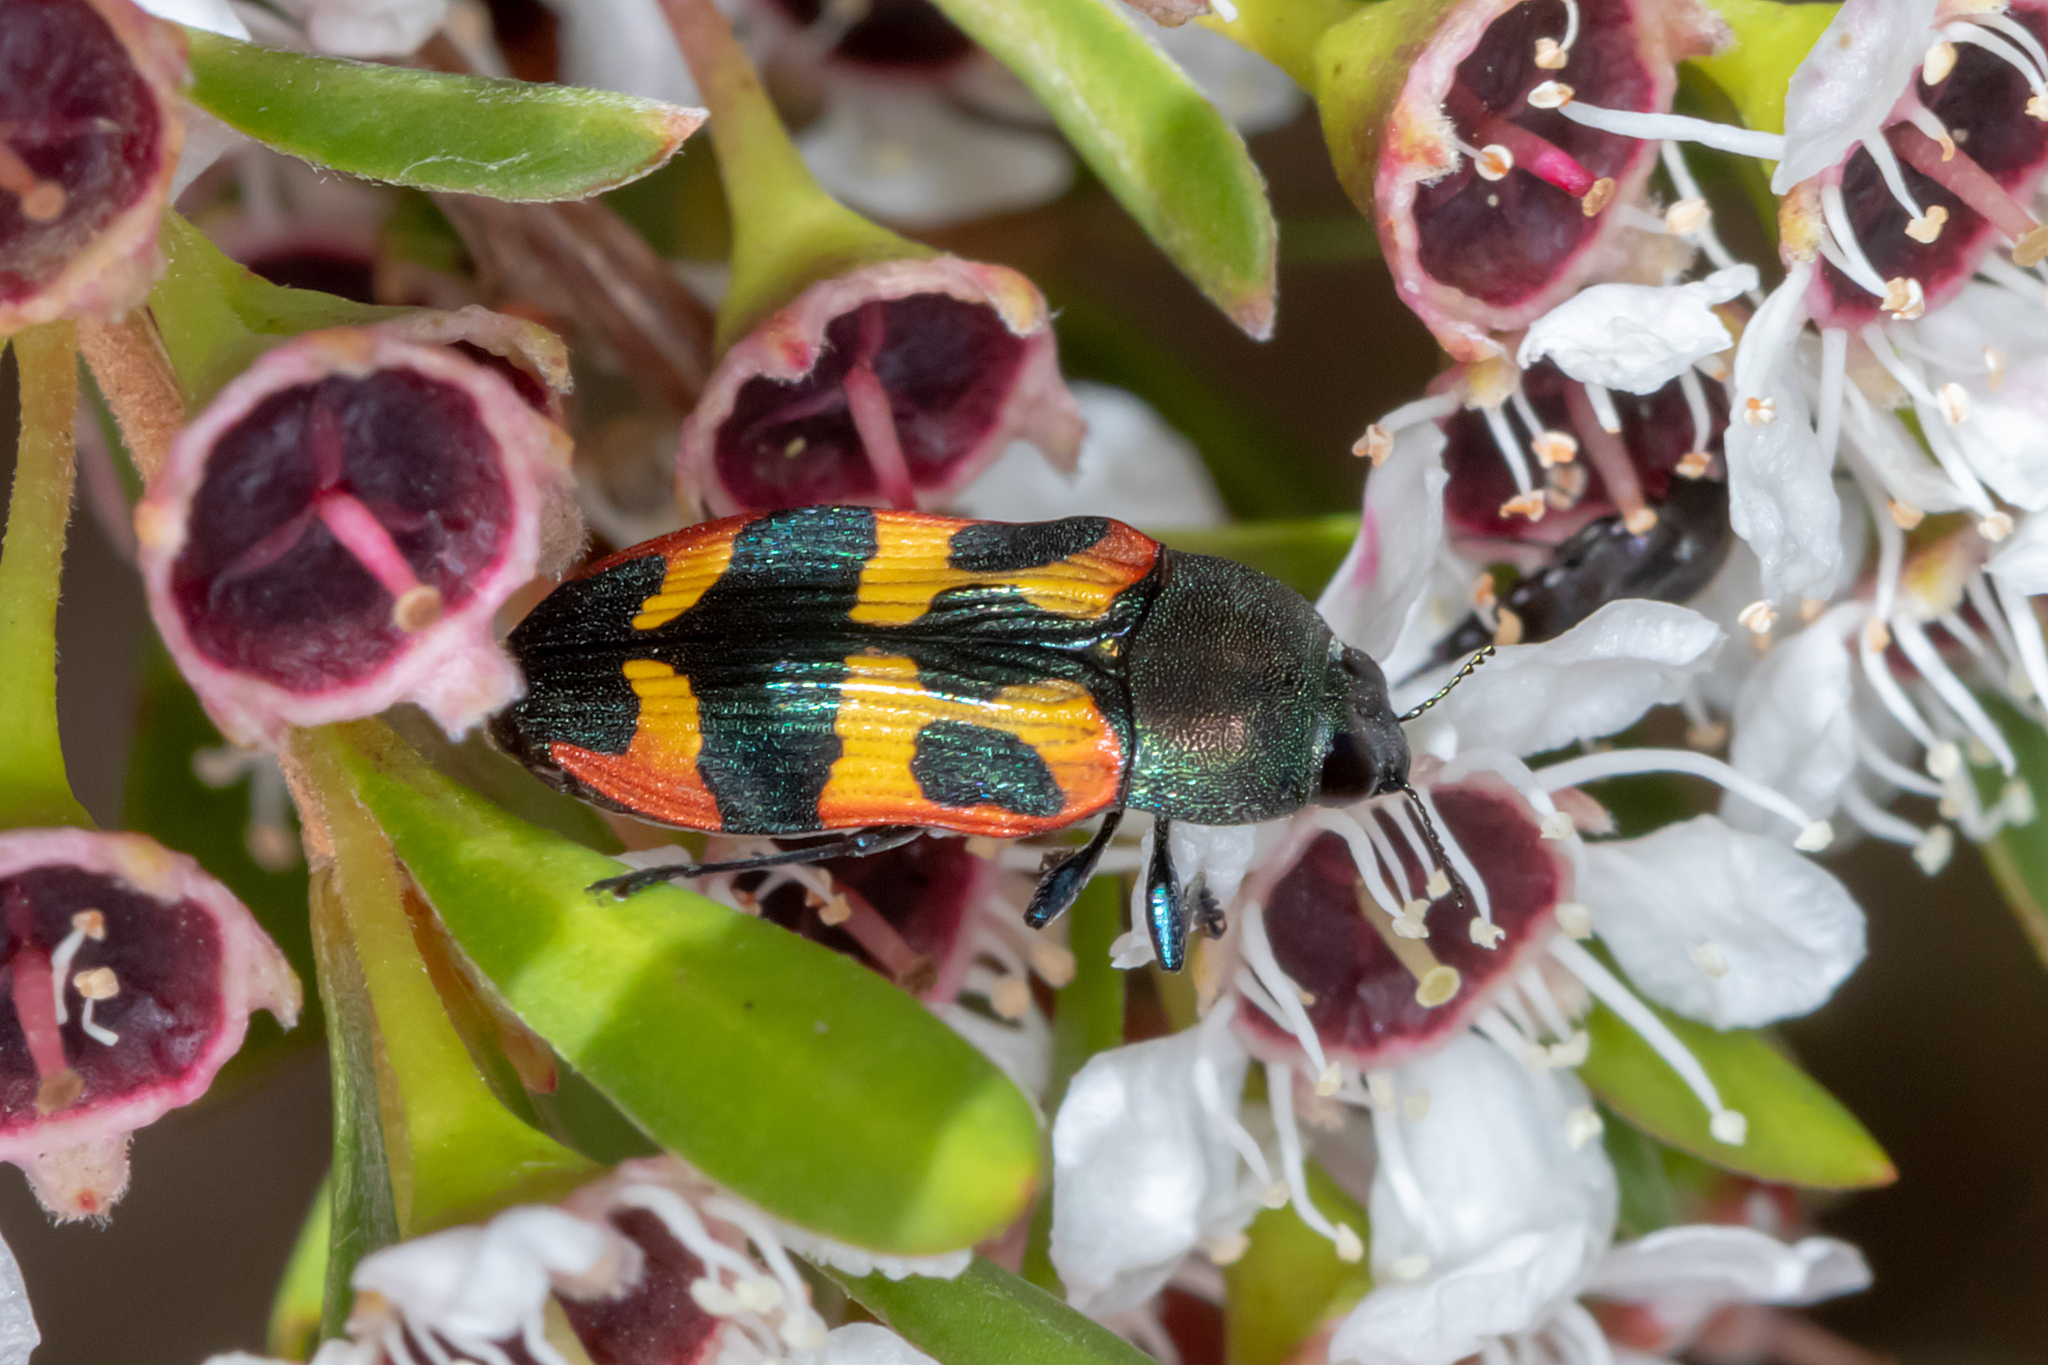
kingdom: Animalia
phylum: Arthropoda
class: Insecta
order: Coleoptera
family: Buprestidae
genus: Castiarina
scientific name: Castiarina sexplagiata
